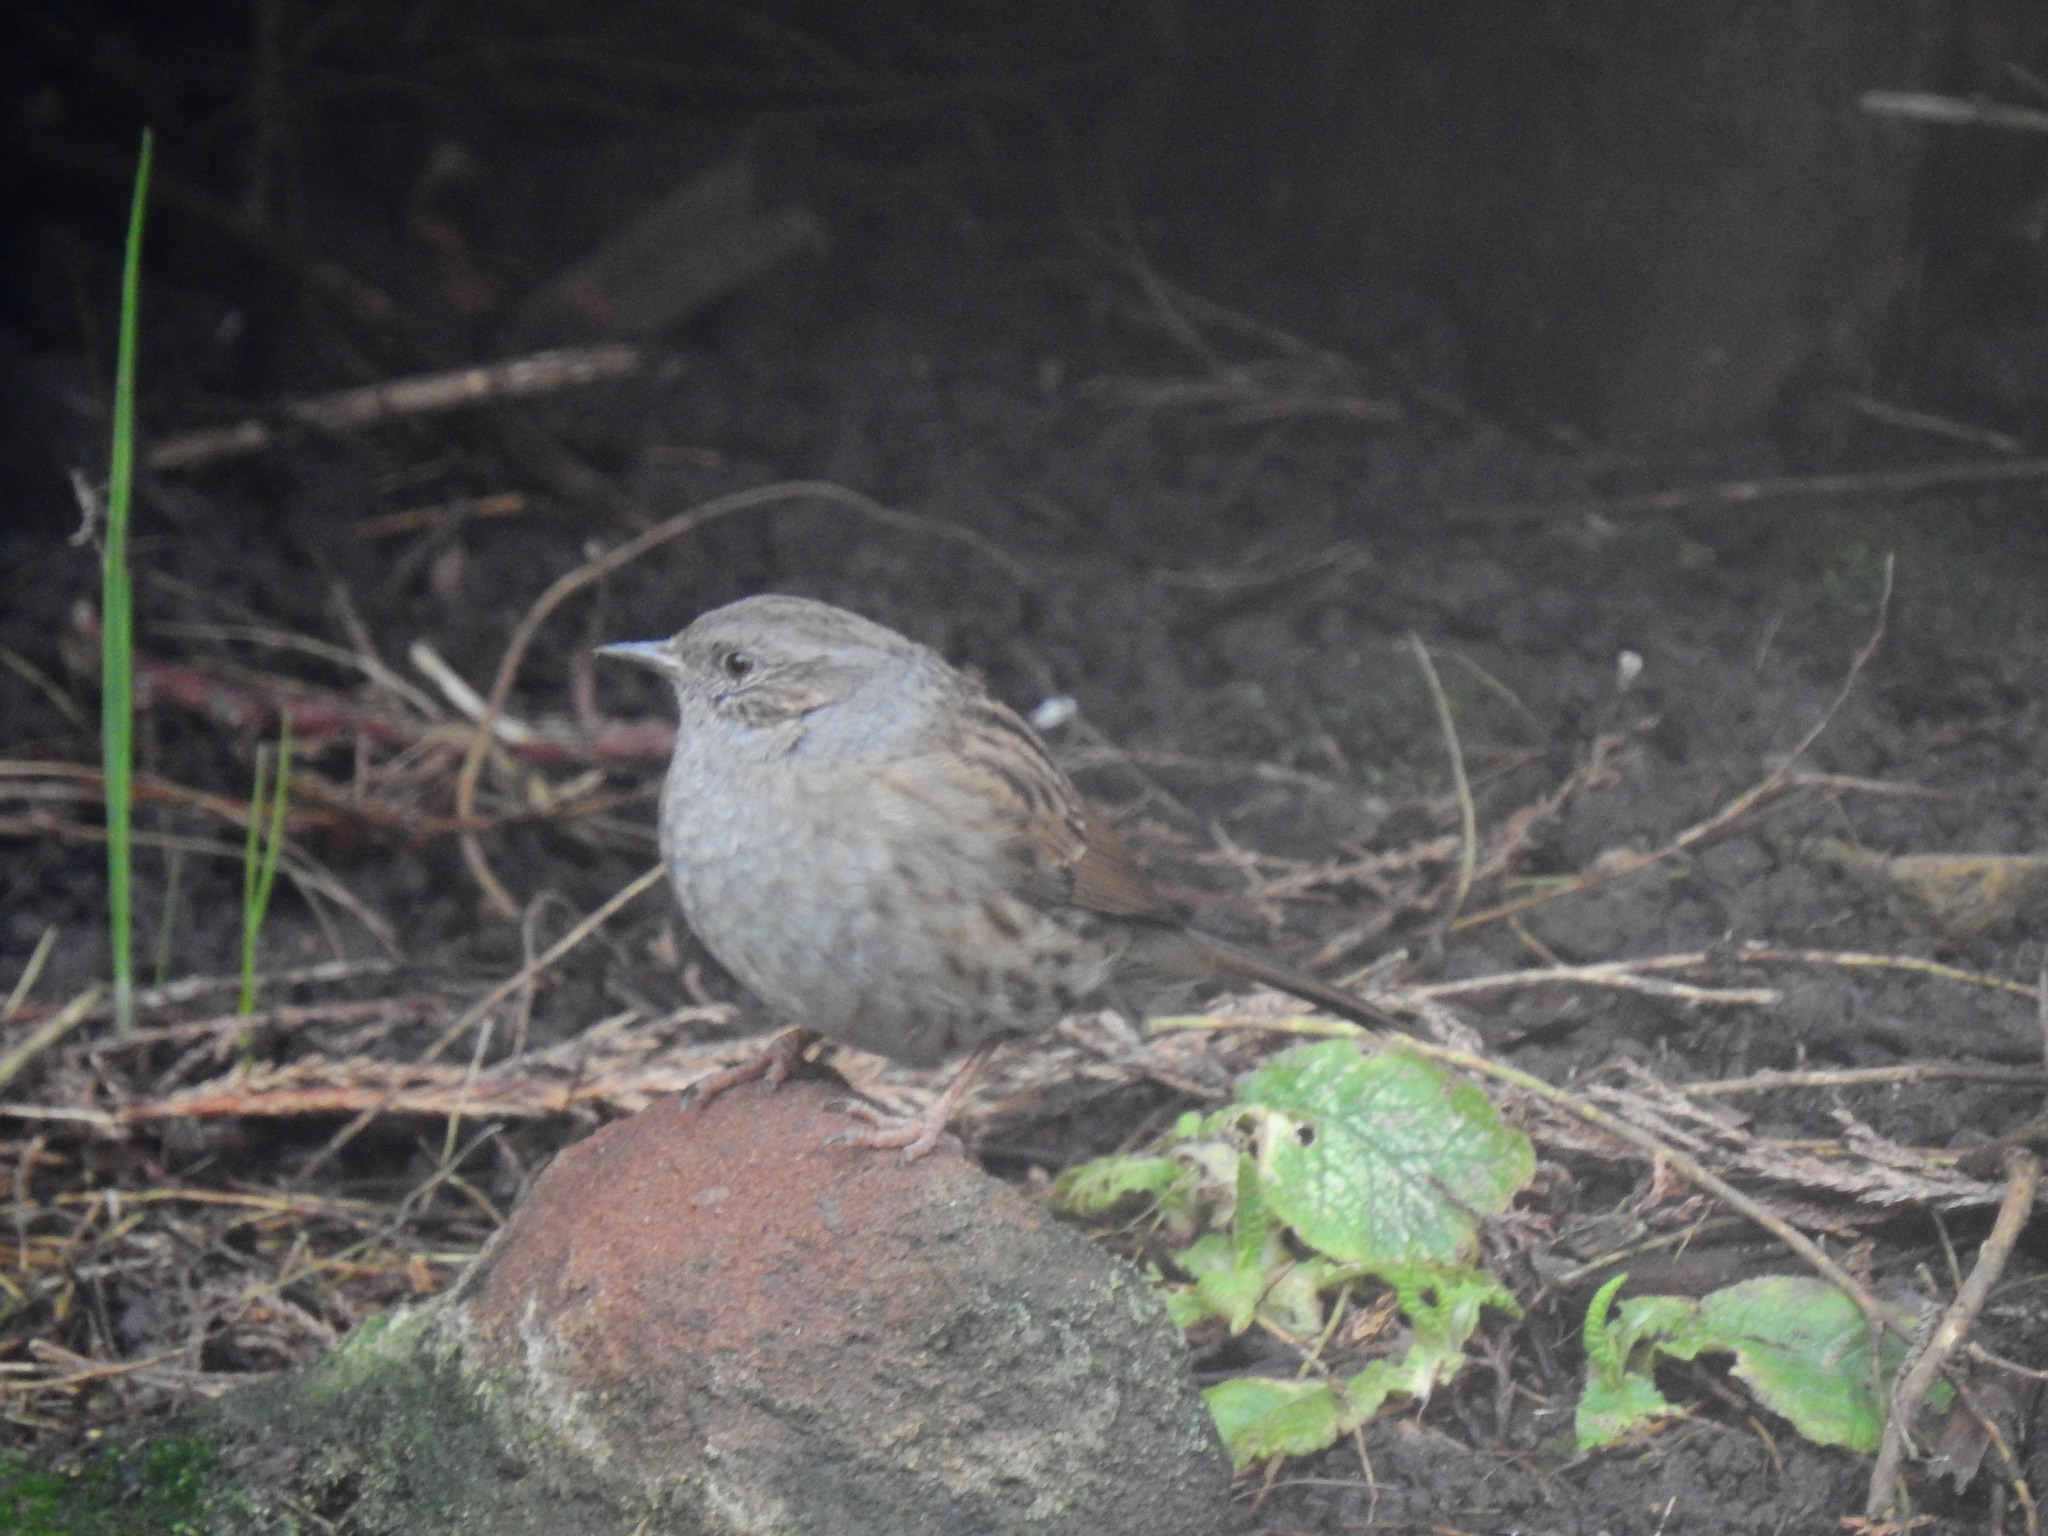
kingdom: Animalia
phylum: Chordata
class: Aves
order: Passeriformes
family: Prunellidae
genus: Prunella
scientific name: Prunella modularis
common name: Dunnock
